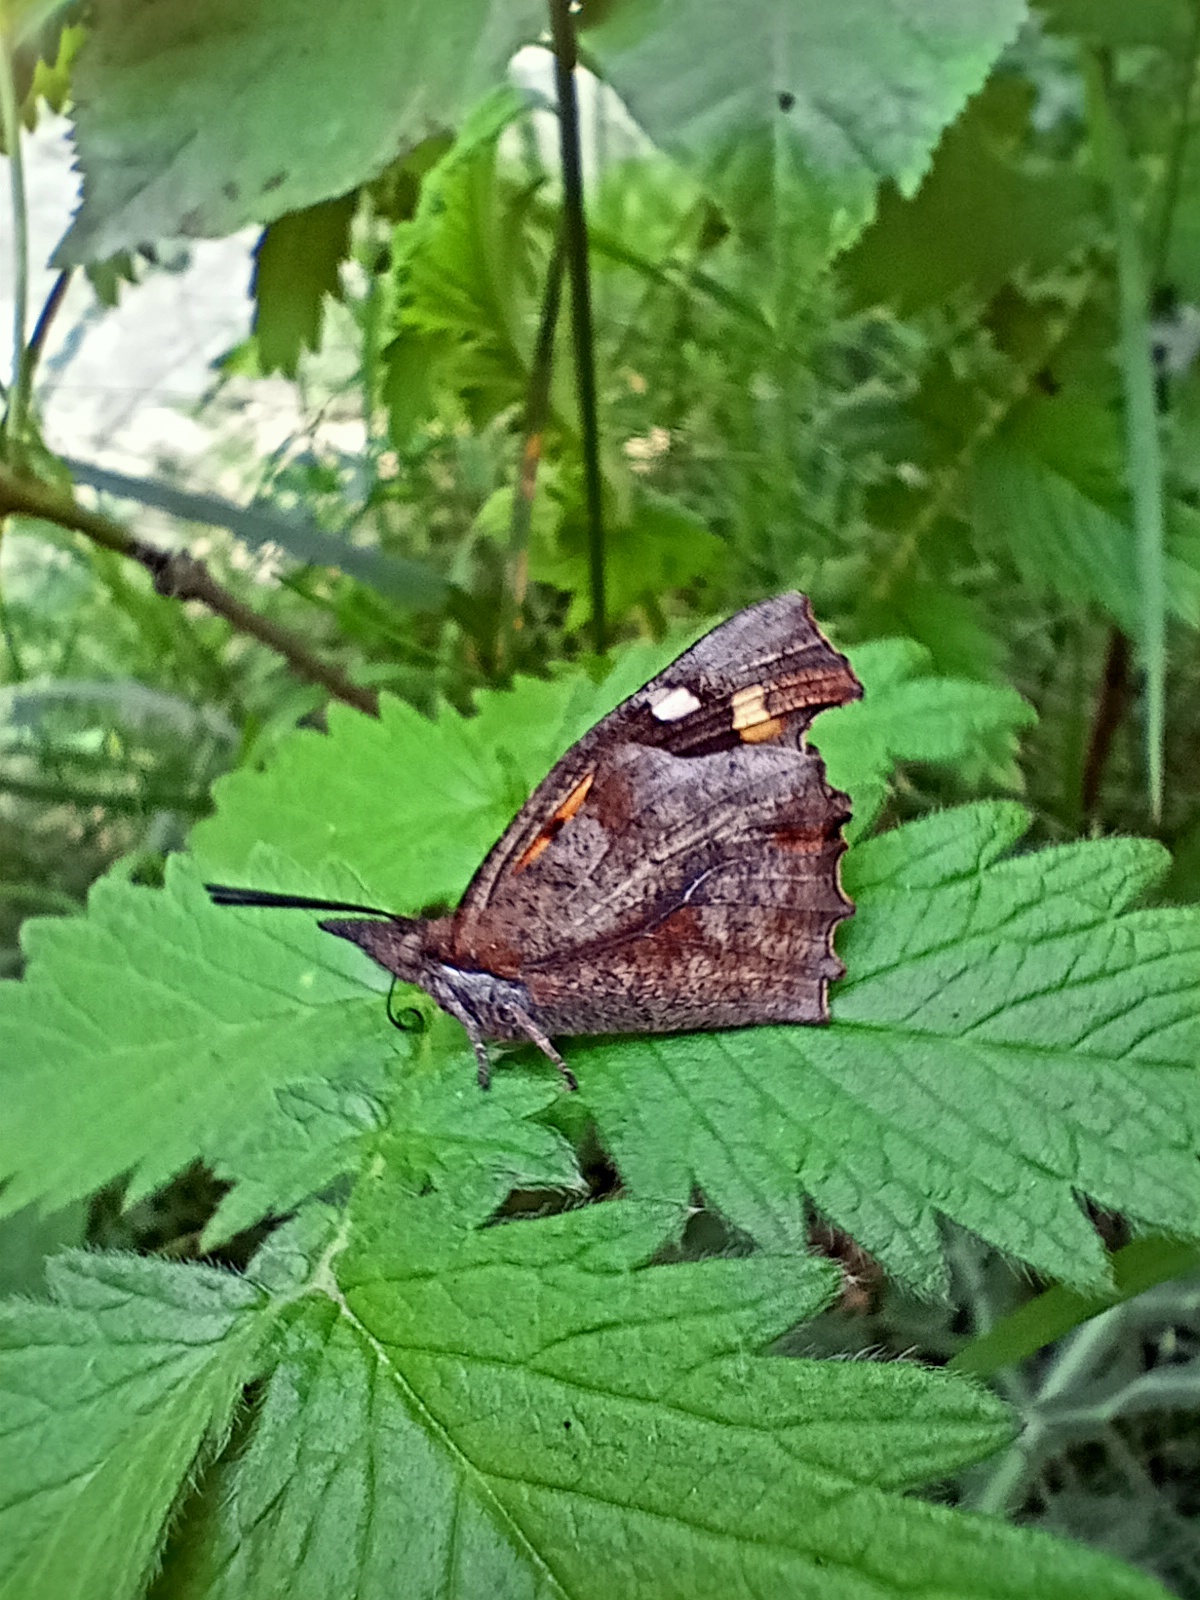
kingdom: Animalia
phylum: Arthropoda
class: Insecta
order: Lepidoptera
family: Nymphalidae
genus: Libythea
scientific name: Libythea celtis
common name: Nettle-tree butterfly
